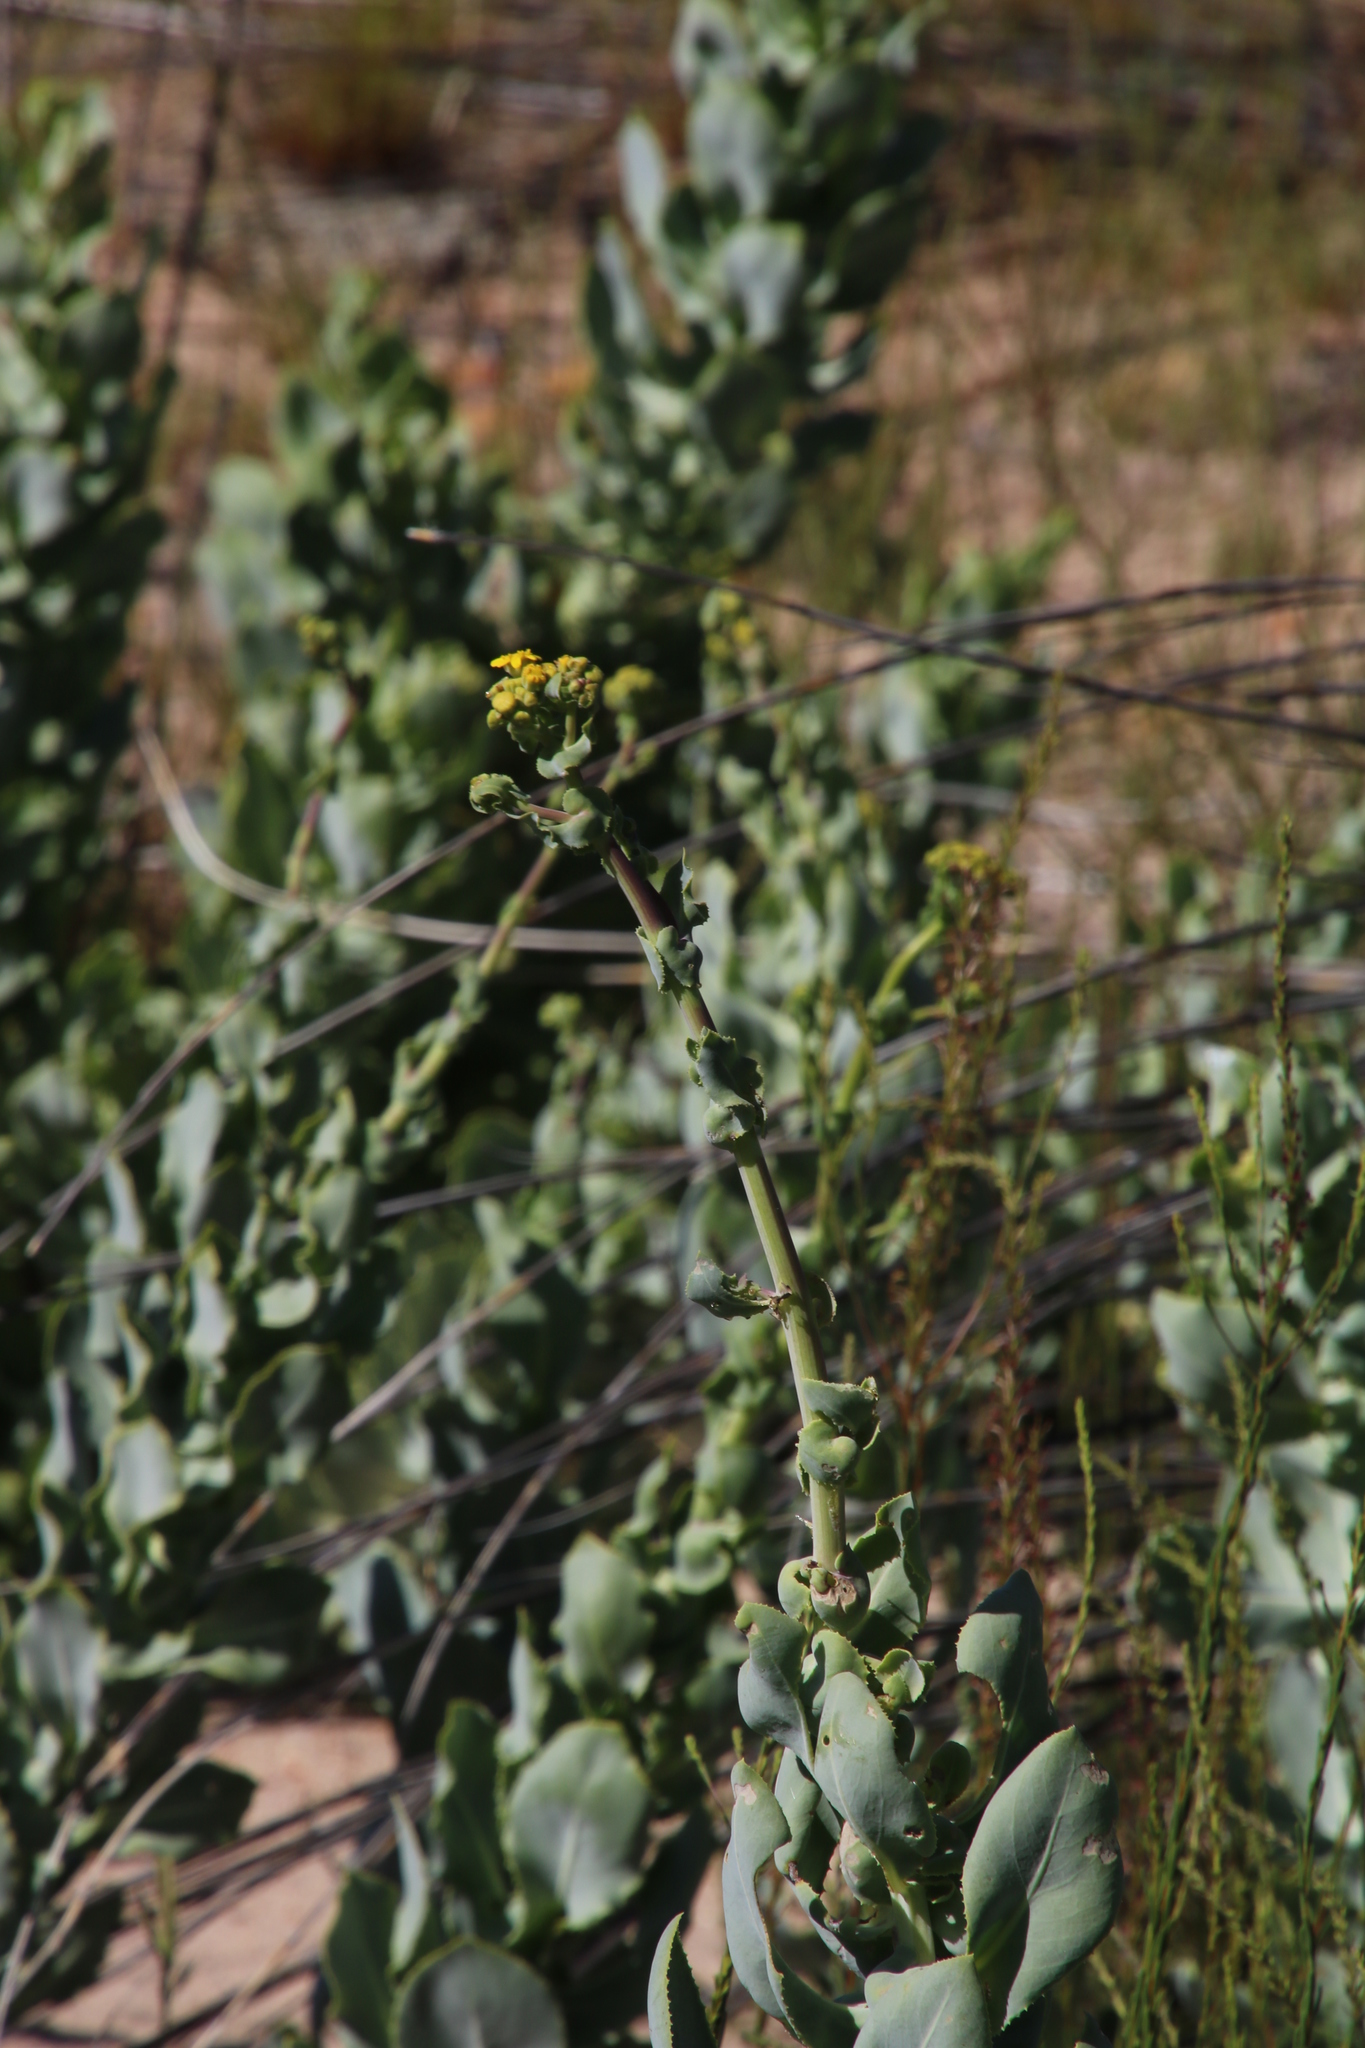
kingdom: Plantae
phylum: Tracheophyta
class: Magnoliopsida
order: Asterales
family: Asteraceae
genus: Othonna
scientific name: Othonna parviflora
